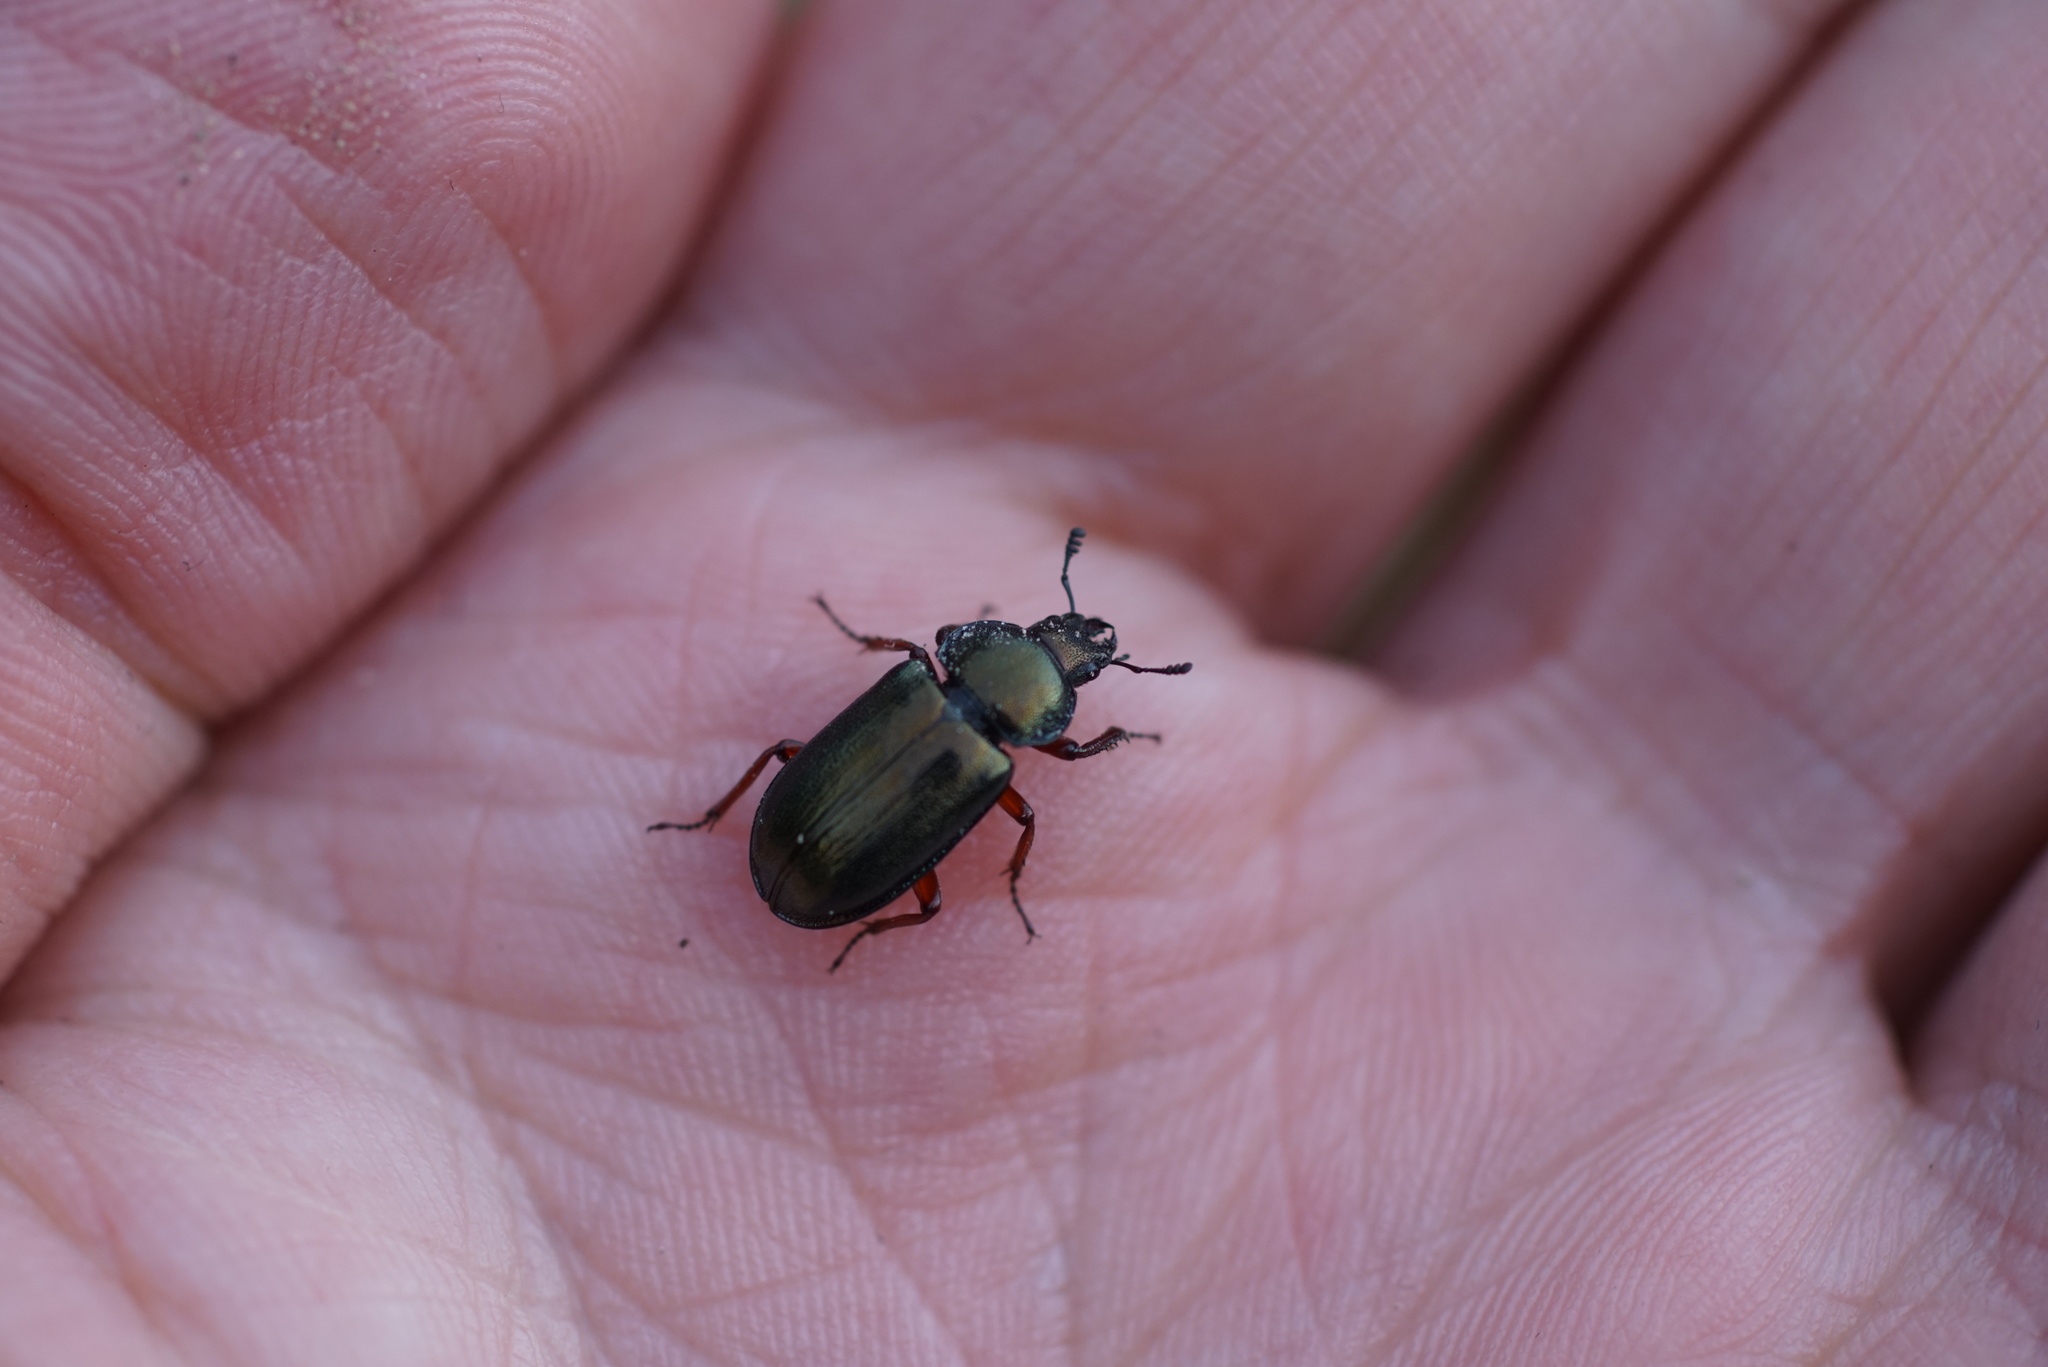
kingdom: Animalia
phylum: Arthropoda
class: Insecta
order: Coleoptera
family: Lucanidae
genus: Platycerus
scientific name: Platycerus caraboides
